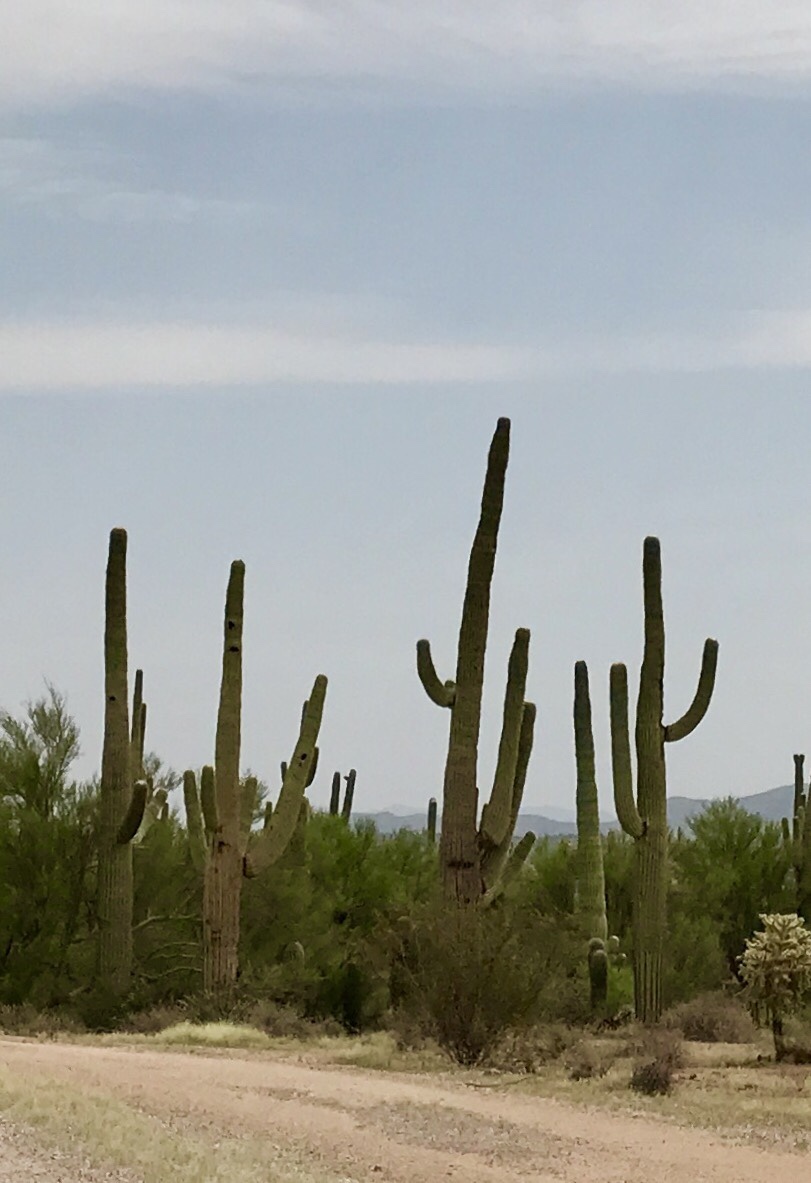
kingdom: Plantae
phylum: Tracheophyta
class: Magnoliopsida
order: Caryophyllales
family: Cactaceae
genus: Carnegiea
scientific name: Carnegiea gigantea
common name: Saguaro
